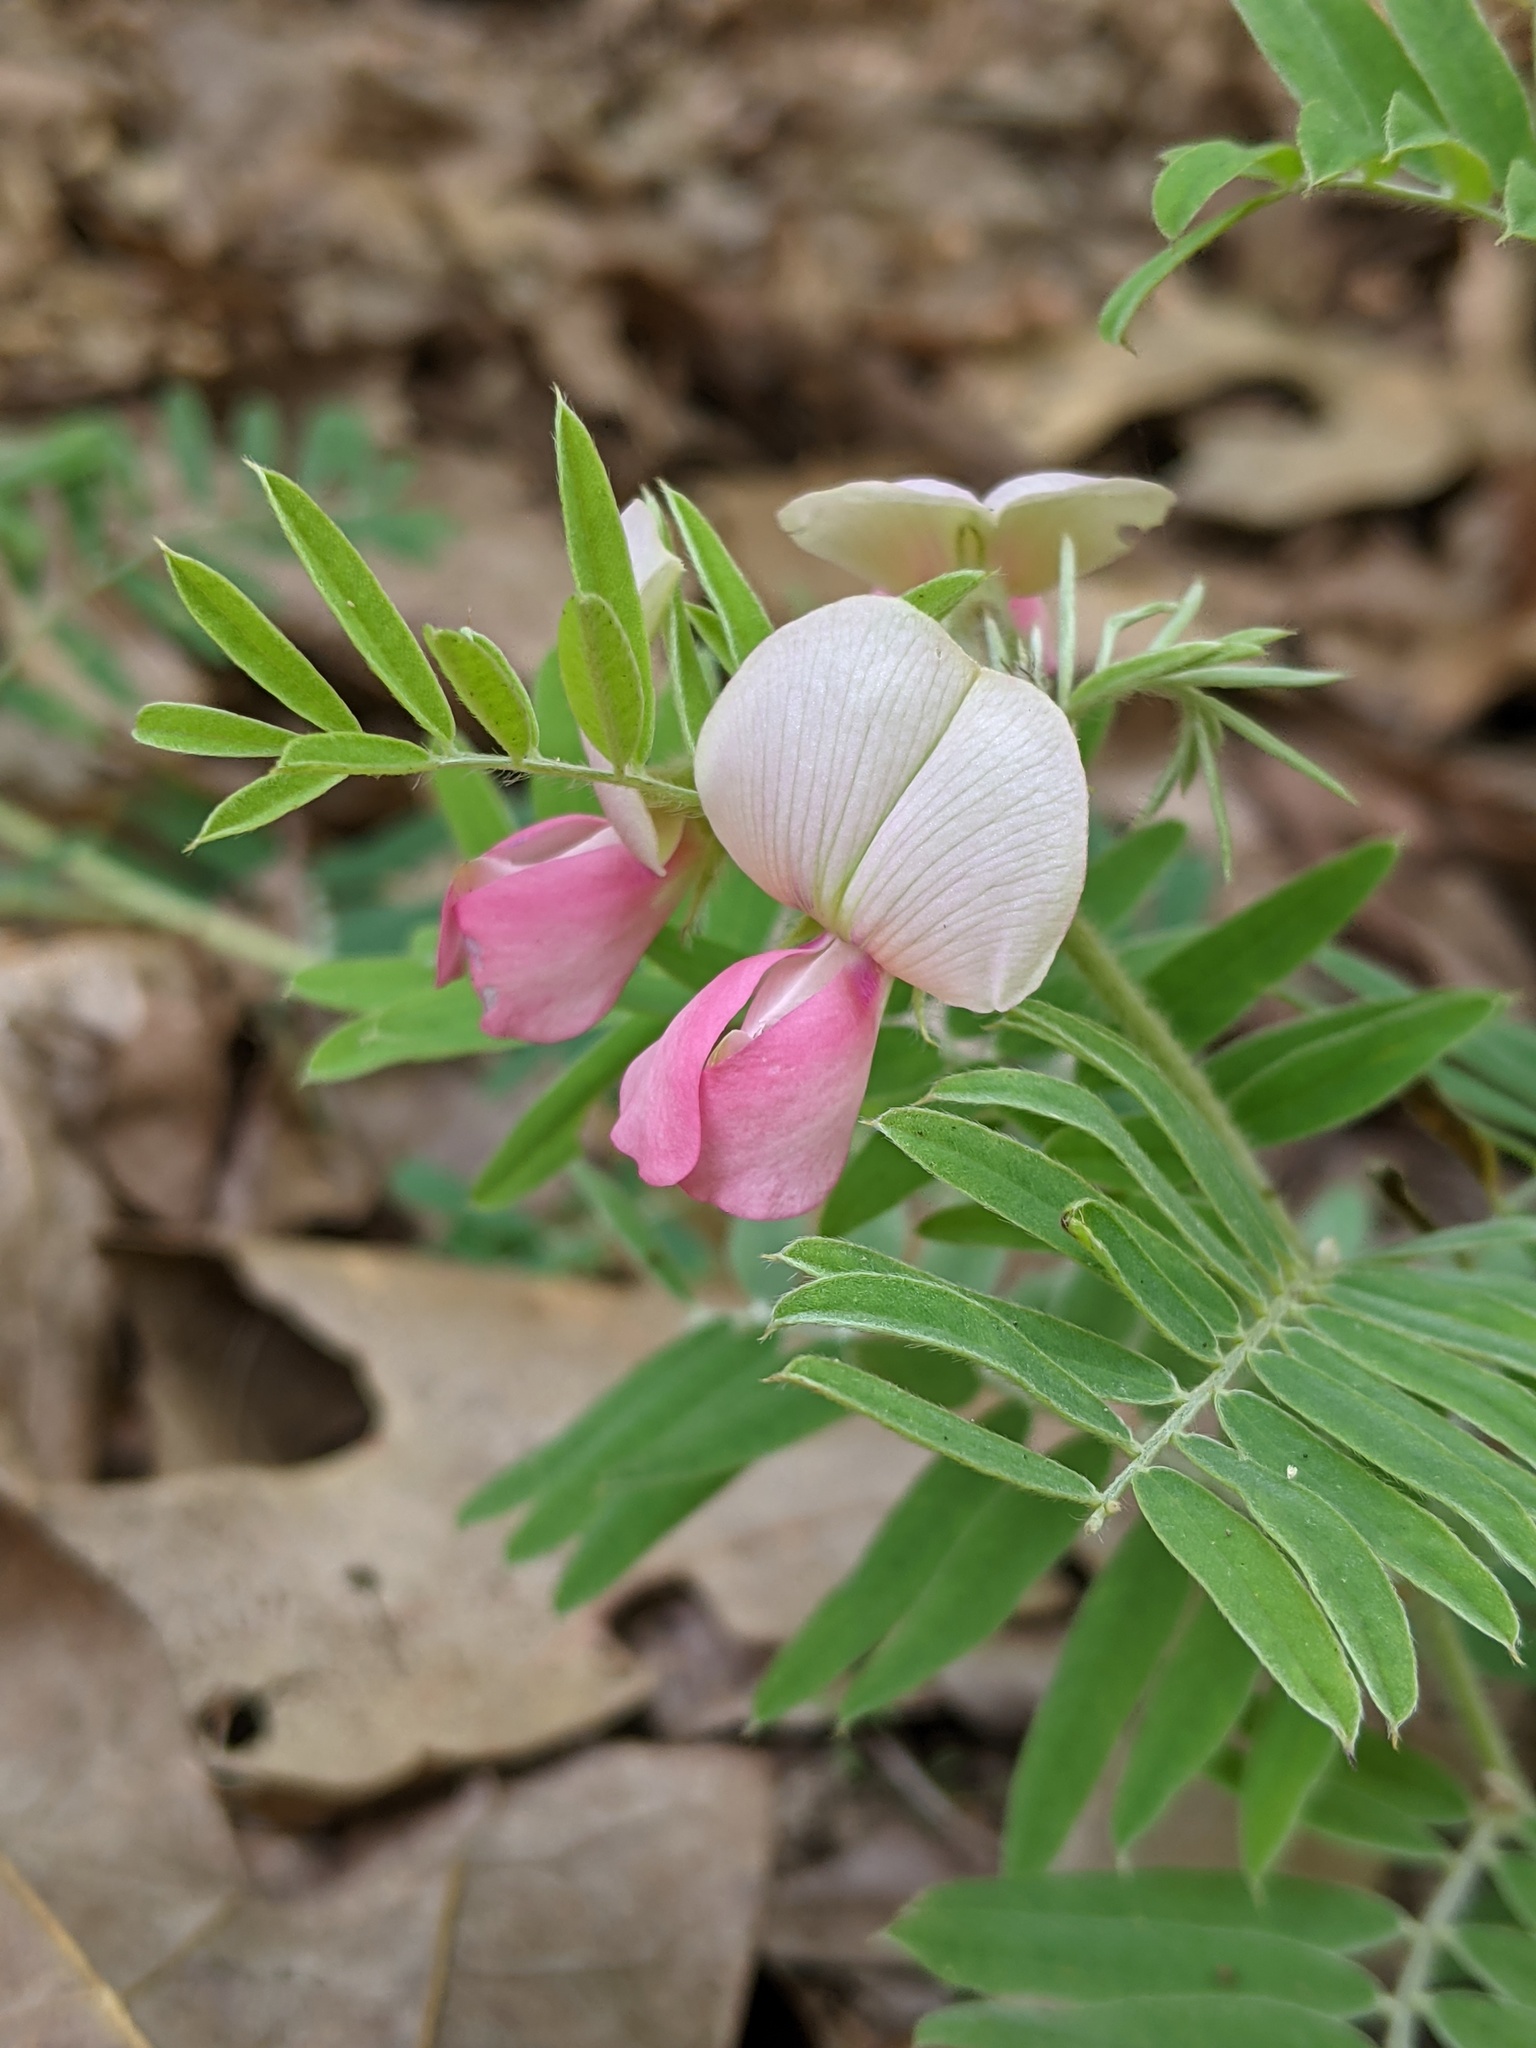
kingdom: Plantae
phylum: Tracheophyta
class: Magnoliopsida
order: Fabales
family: Fabaceae
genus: Tephrosia
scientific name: Tephrosia virginiana
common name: Rabbit-pea
